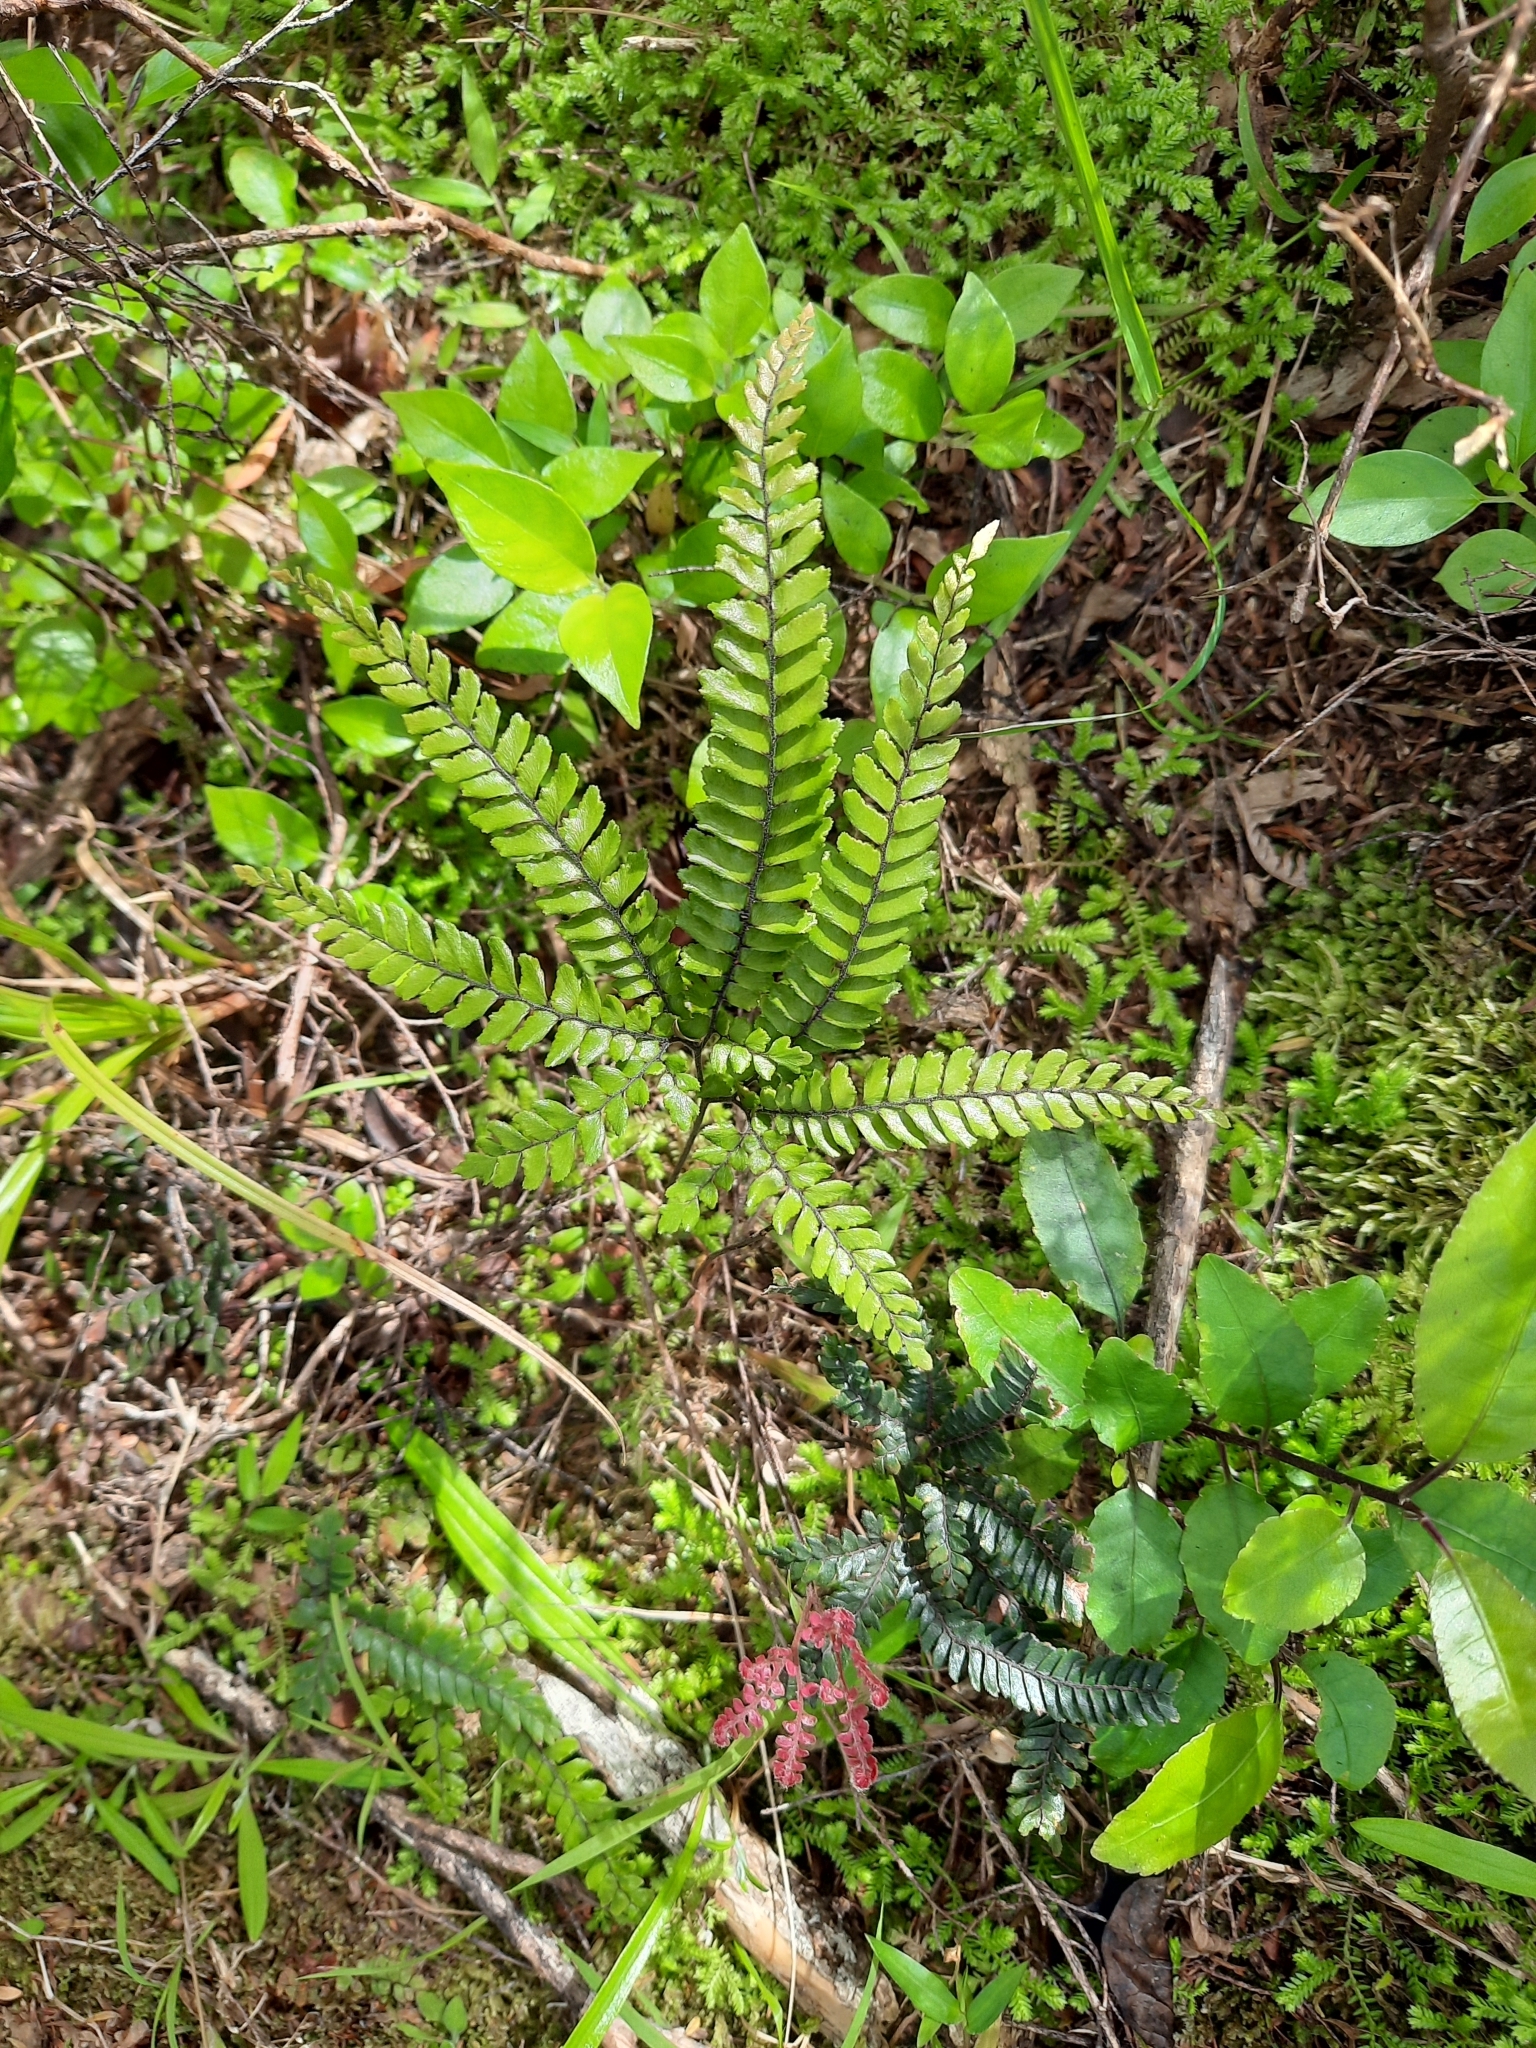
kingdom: Plantae
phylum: Tracheophyta
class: Polypodiopsida
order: Polypodiales
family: Pteridaceae
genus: Adiantum
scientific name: Adiantum hispidulum
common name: Rough maidenhair
